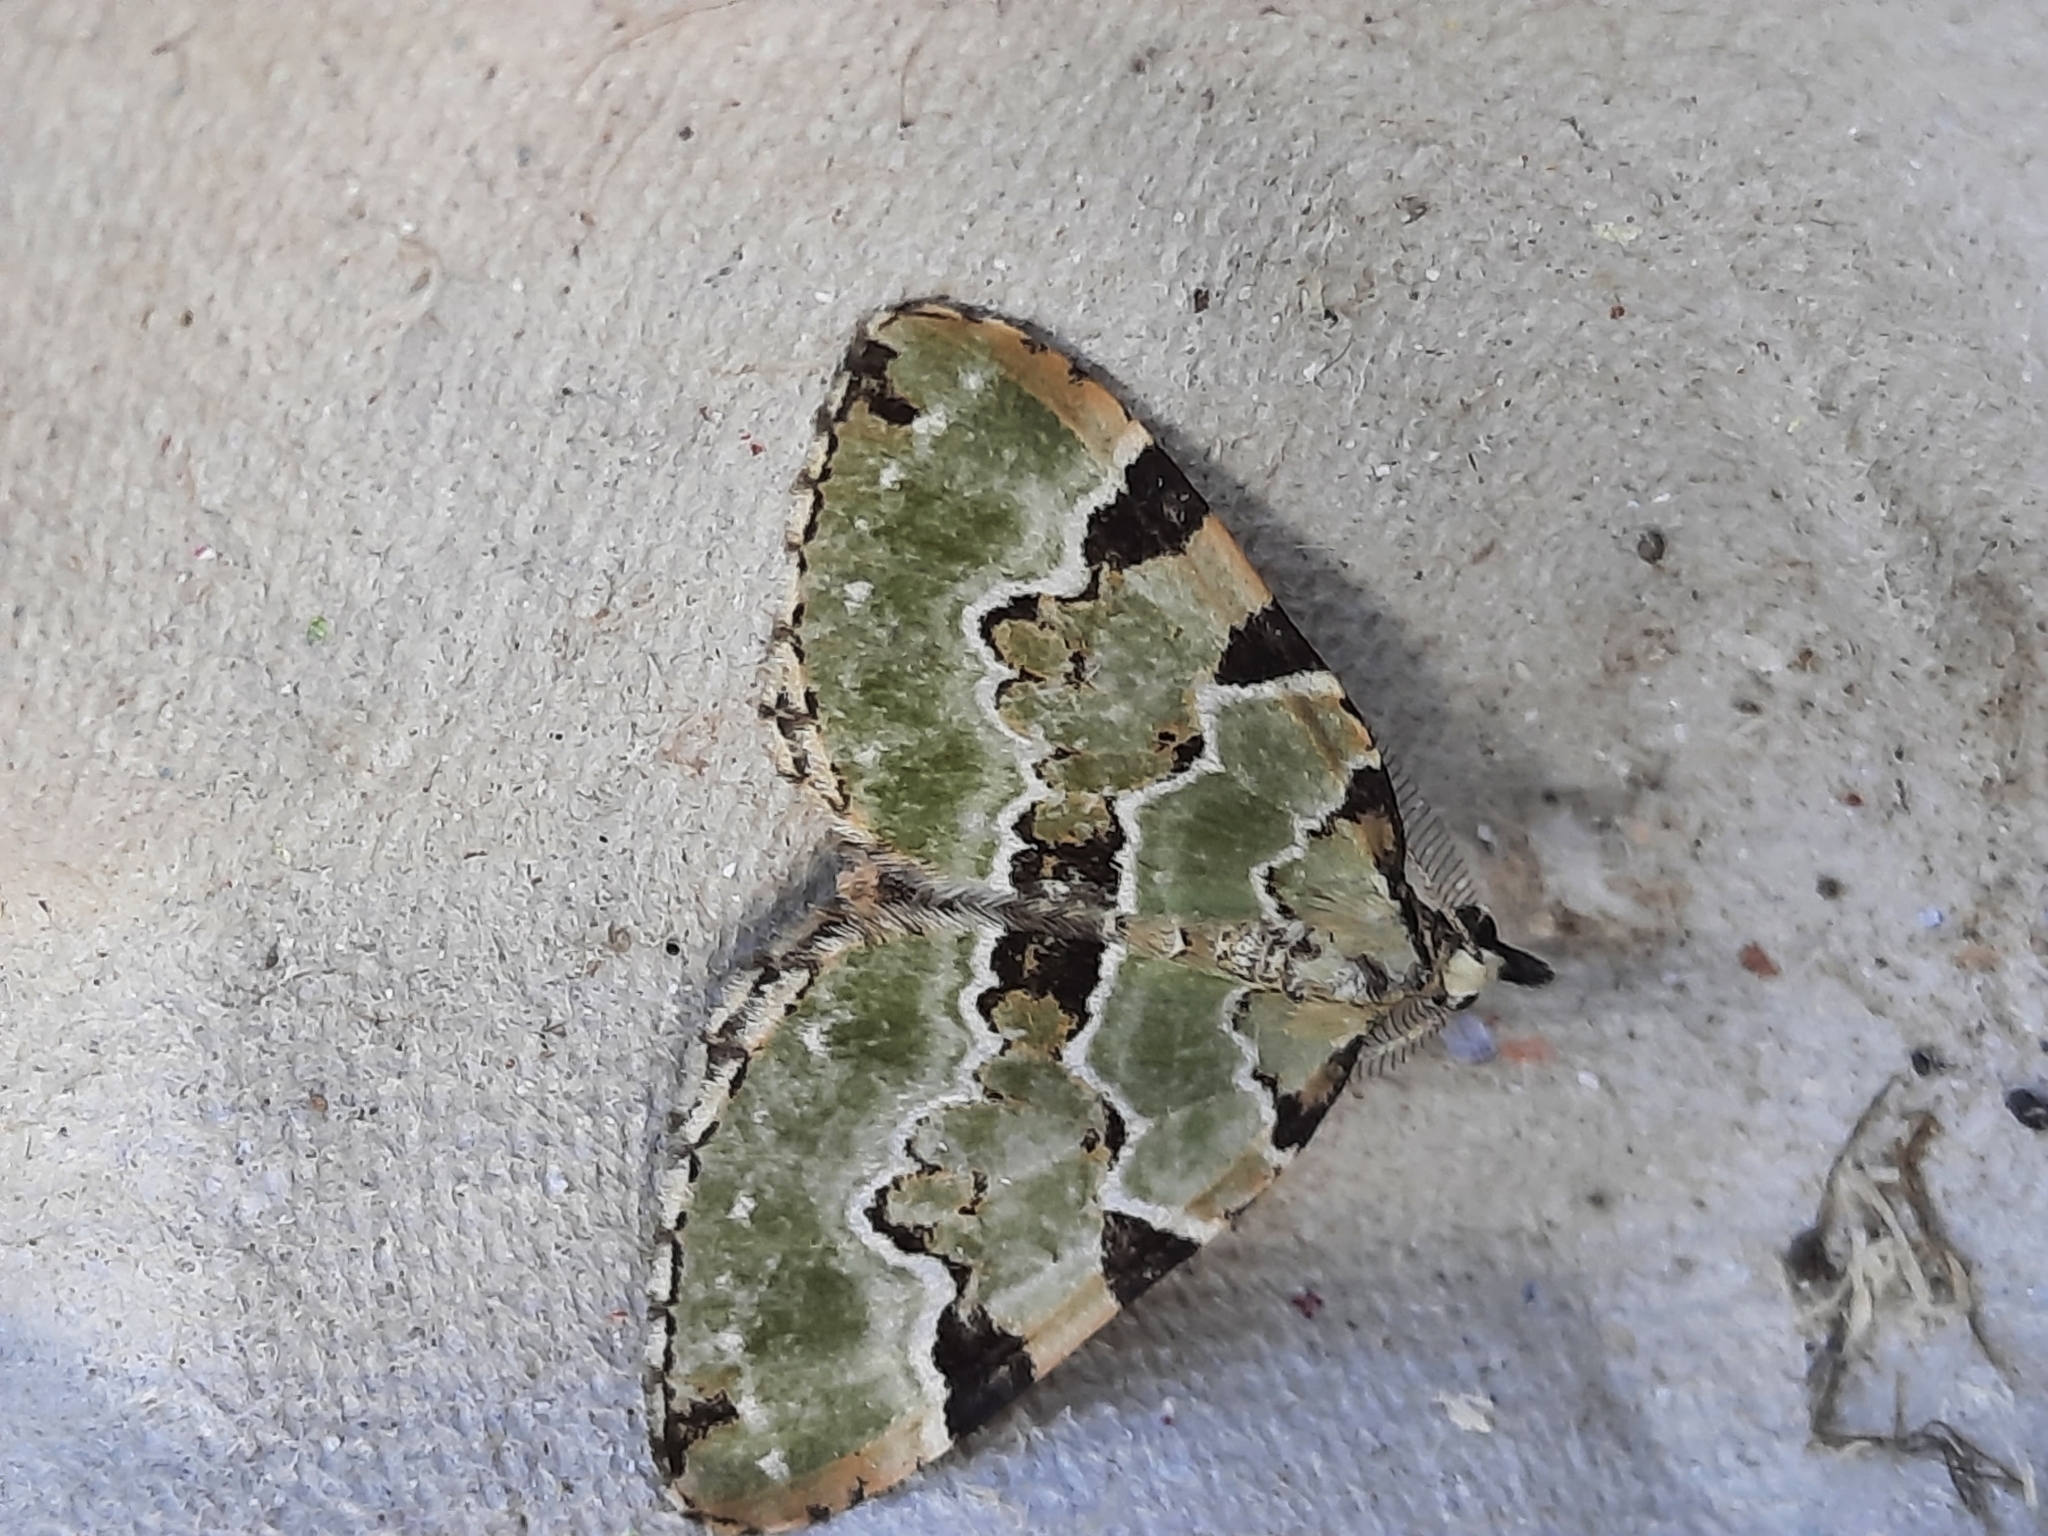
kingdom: Animalia
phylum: Arthropoda
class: Insecta
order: Lepidoptera
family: Geometridae
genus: Colostygia
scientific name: Colostygia pectinataria
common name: Green carpet
